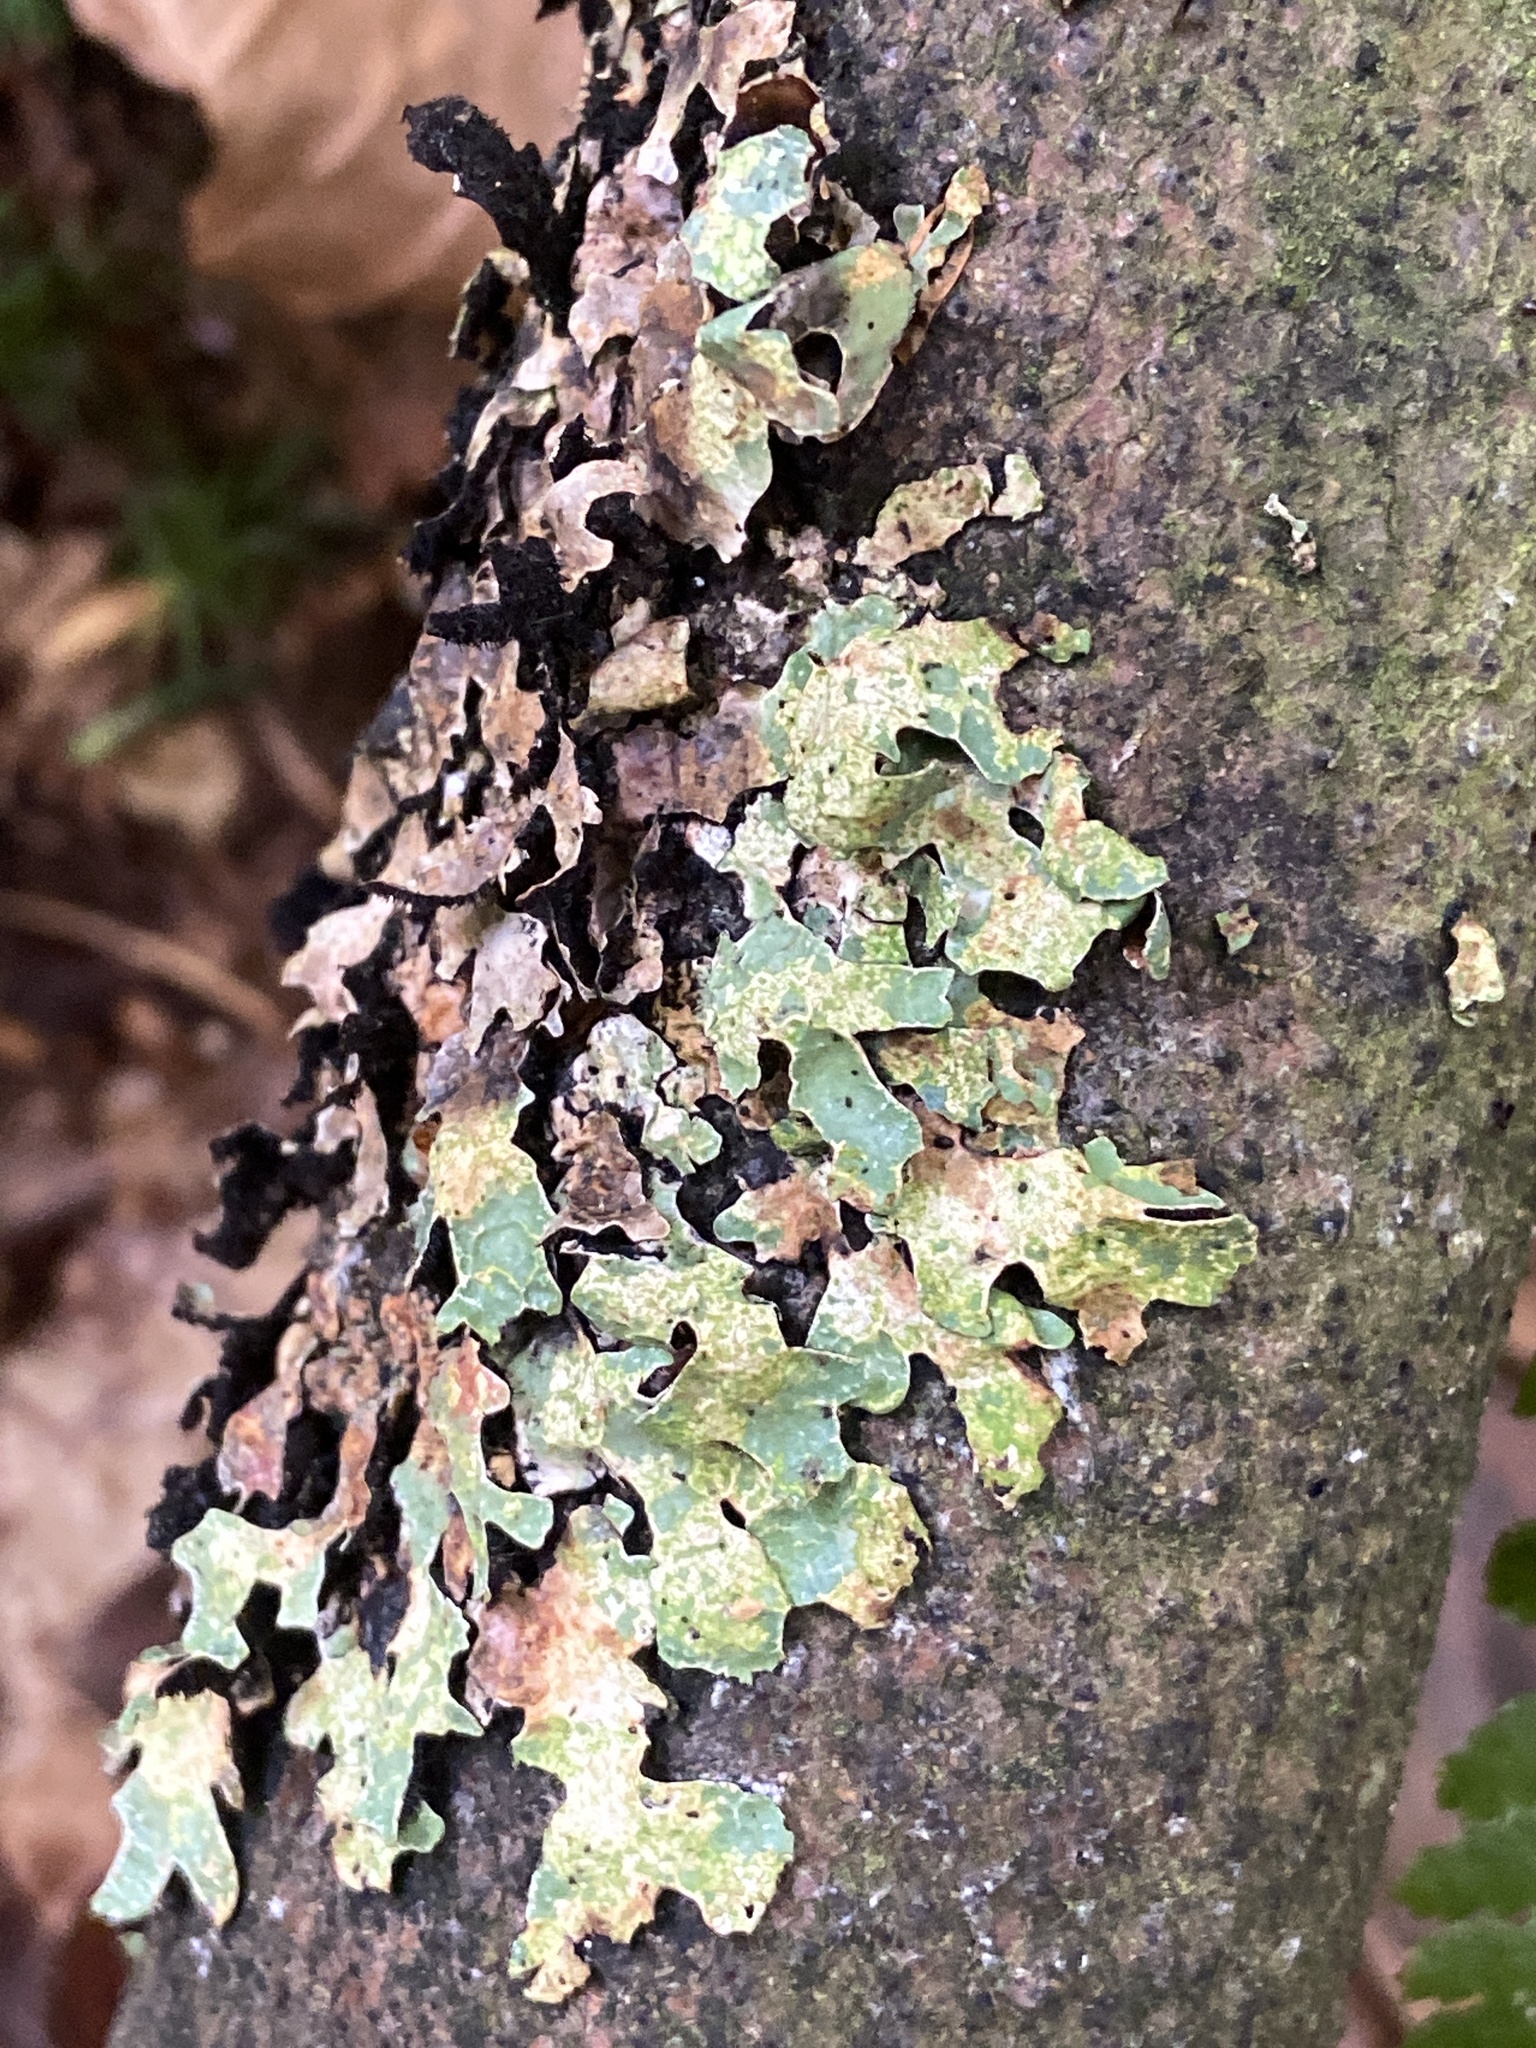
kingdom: Fungi
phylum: Ascomycota
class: Lecanoromycetes
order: Lecanorales
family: Parmeliaceae
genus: Parmelia
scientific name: Parmelia sulcata
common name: Netted shield lichen
